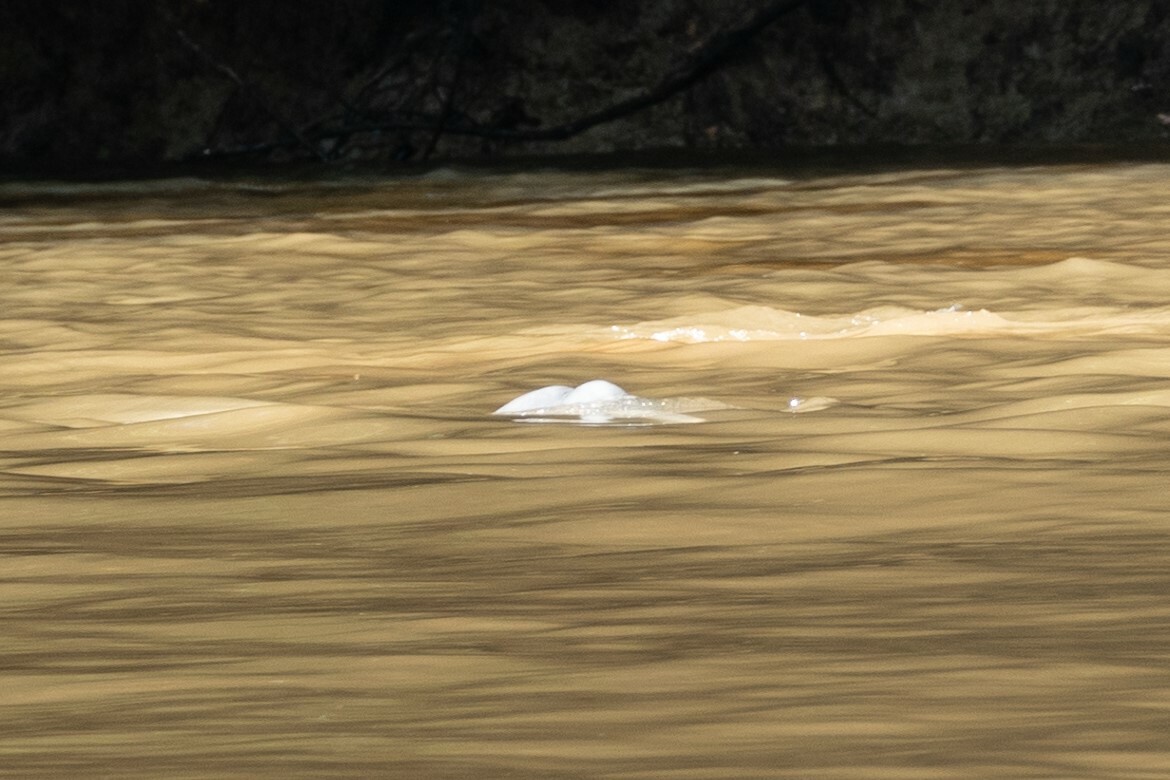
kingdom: Animalia
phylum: Chordata
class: Mammalia
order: Cetacea
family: Iniidae
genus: Inia
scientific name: Inia geoffrensis
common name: Amazon river dolphin
